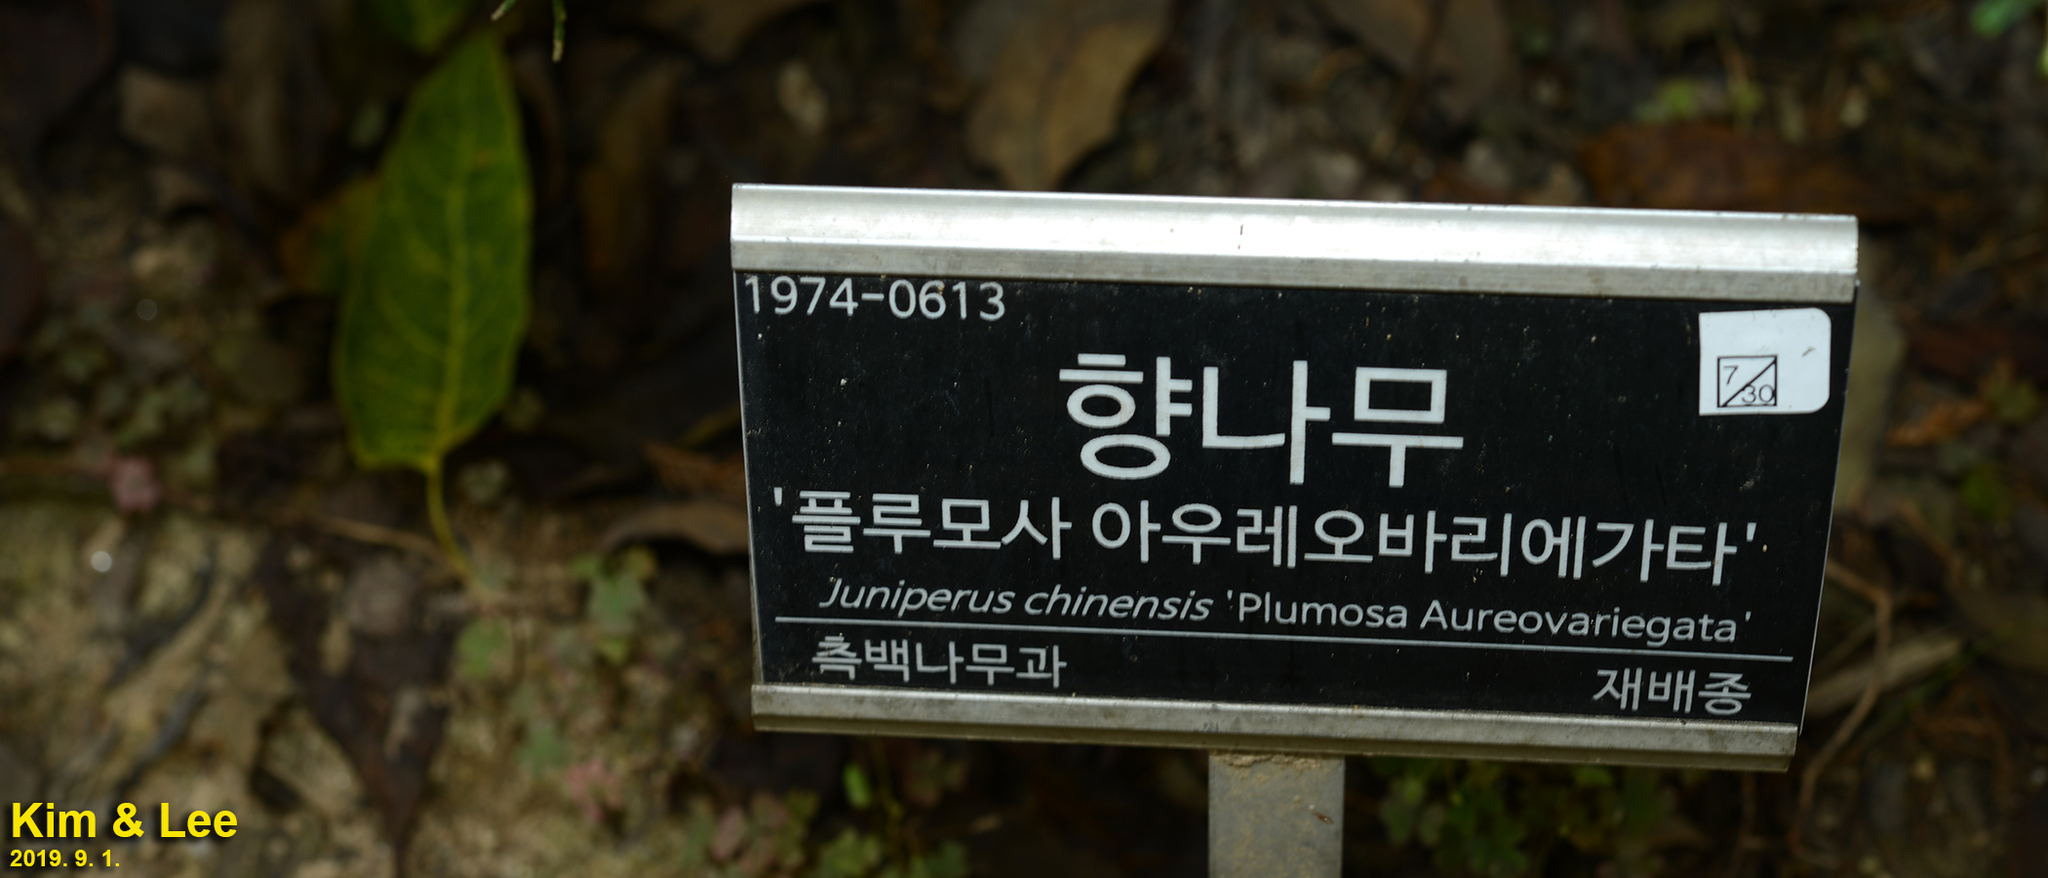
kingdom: Plantae
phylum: Tracheophyta
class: Pinopsida
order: Pinales
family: Cupressaceae
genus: Juniperus
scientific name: Juniperus chinensis
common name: Chinese juniper
